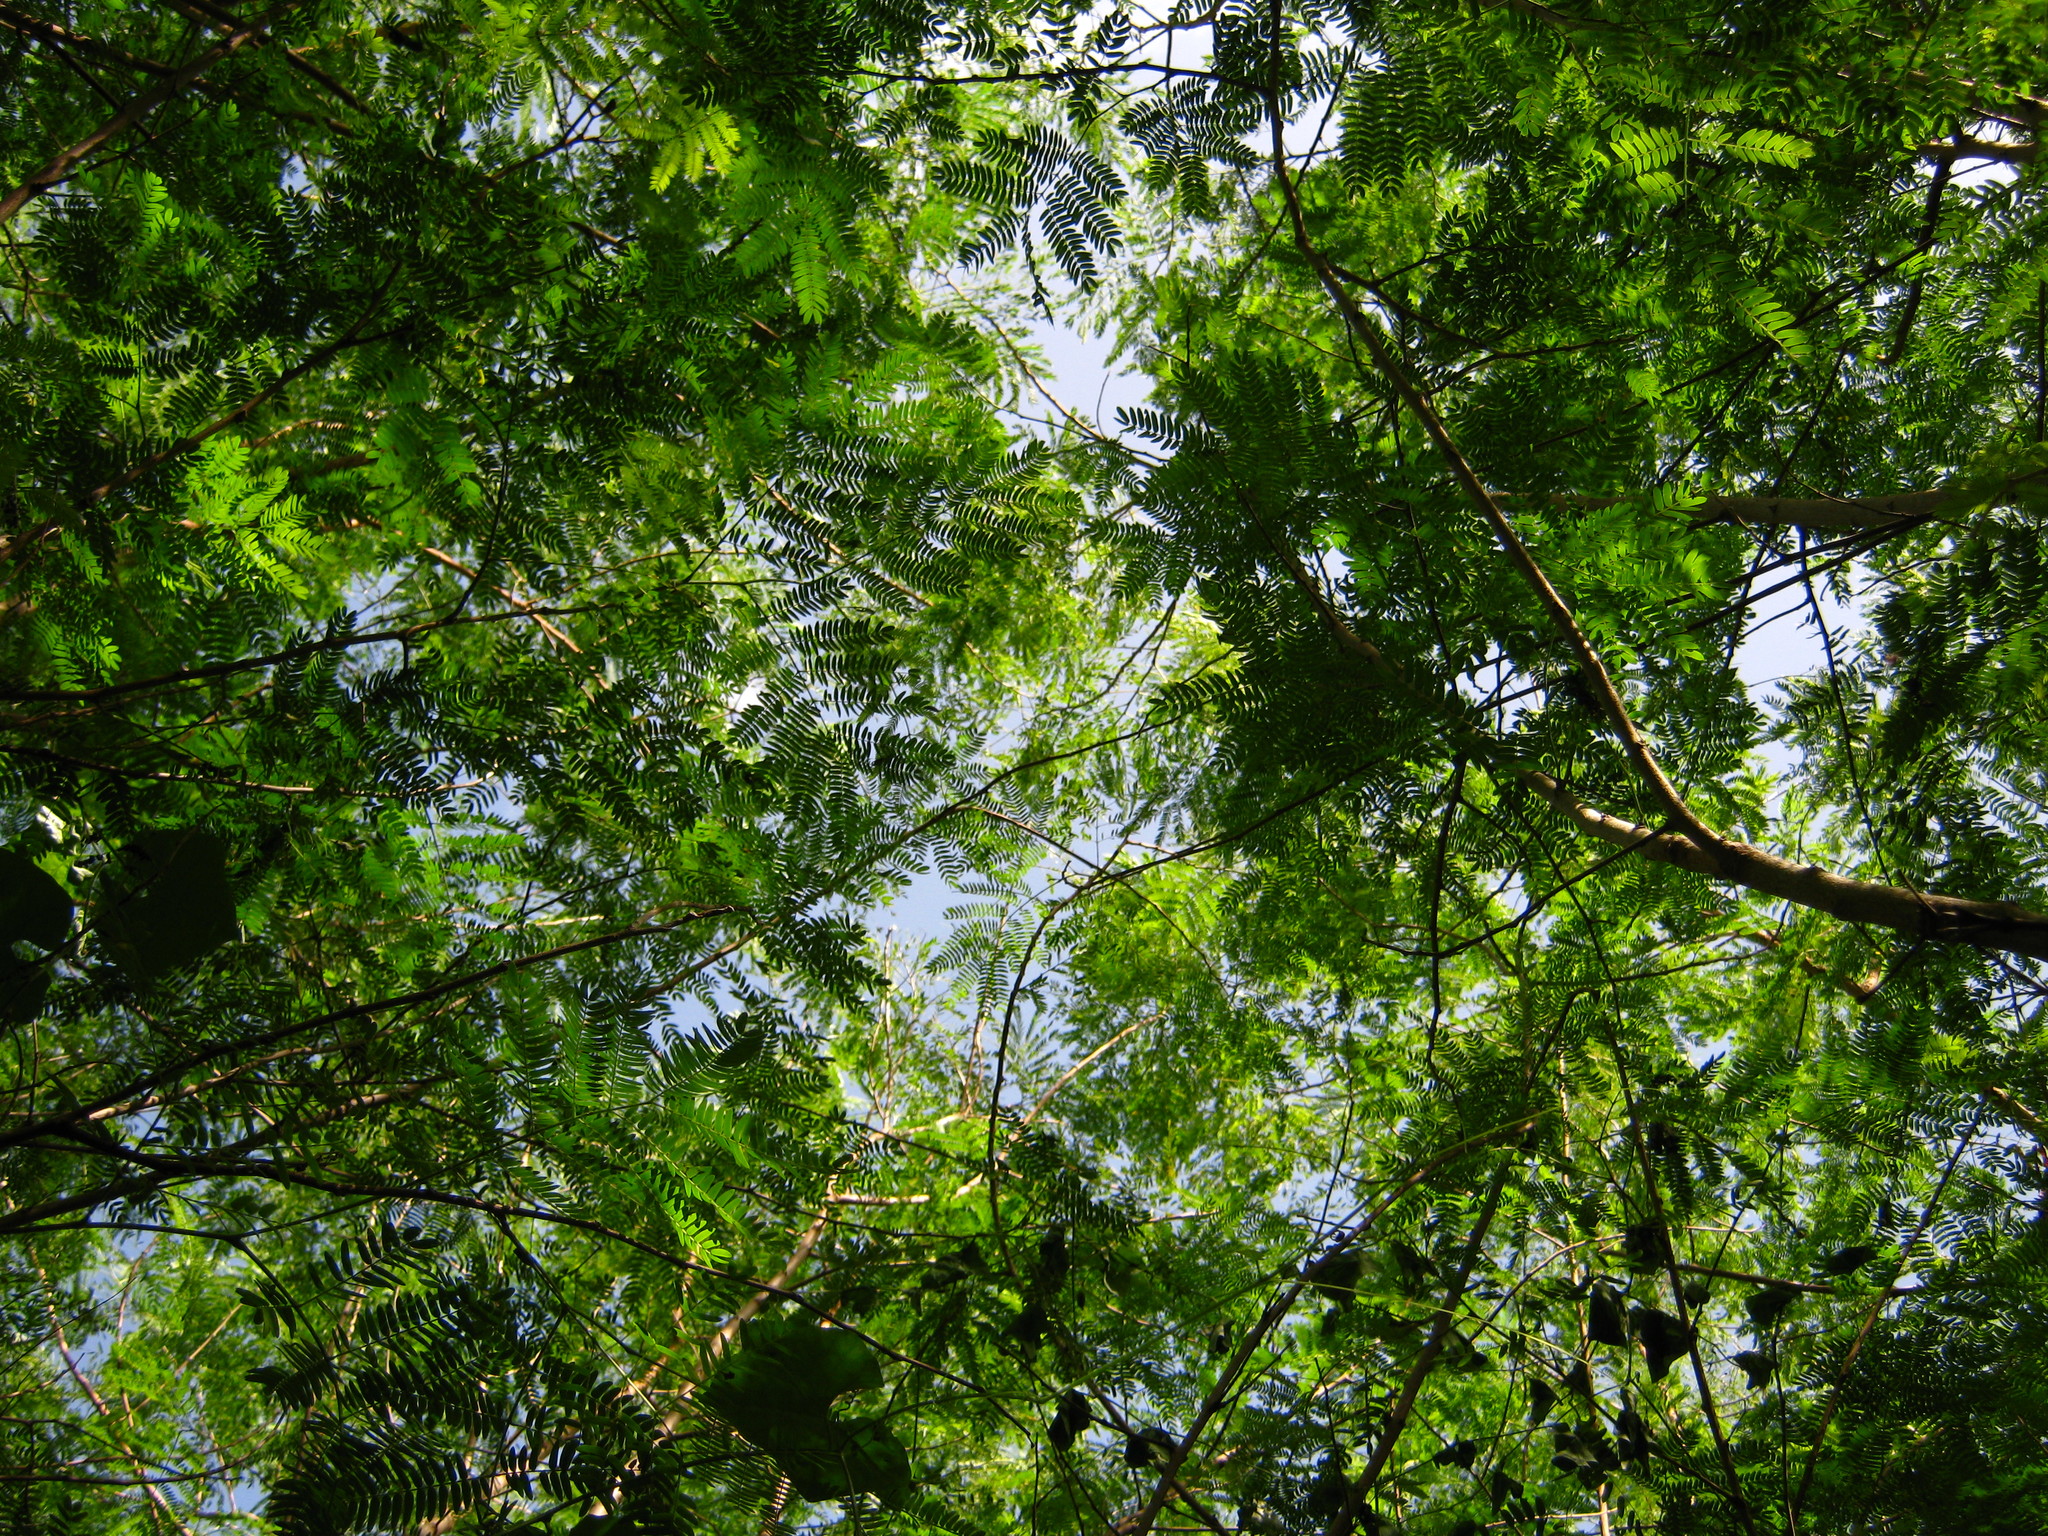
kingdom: Plantae
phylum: Tracheophyta
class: Magnoliopsida
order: Fabales
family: Fabaceae
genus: Leucaena
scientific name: Leucaena leucocephala
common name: White leadtree
